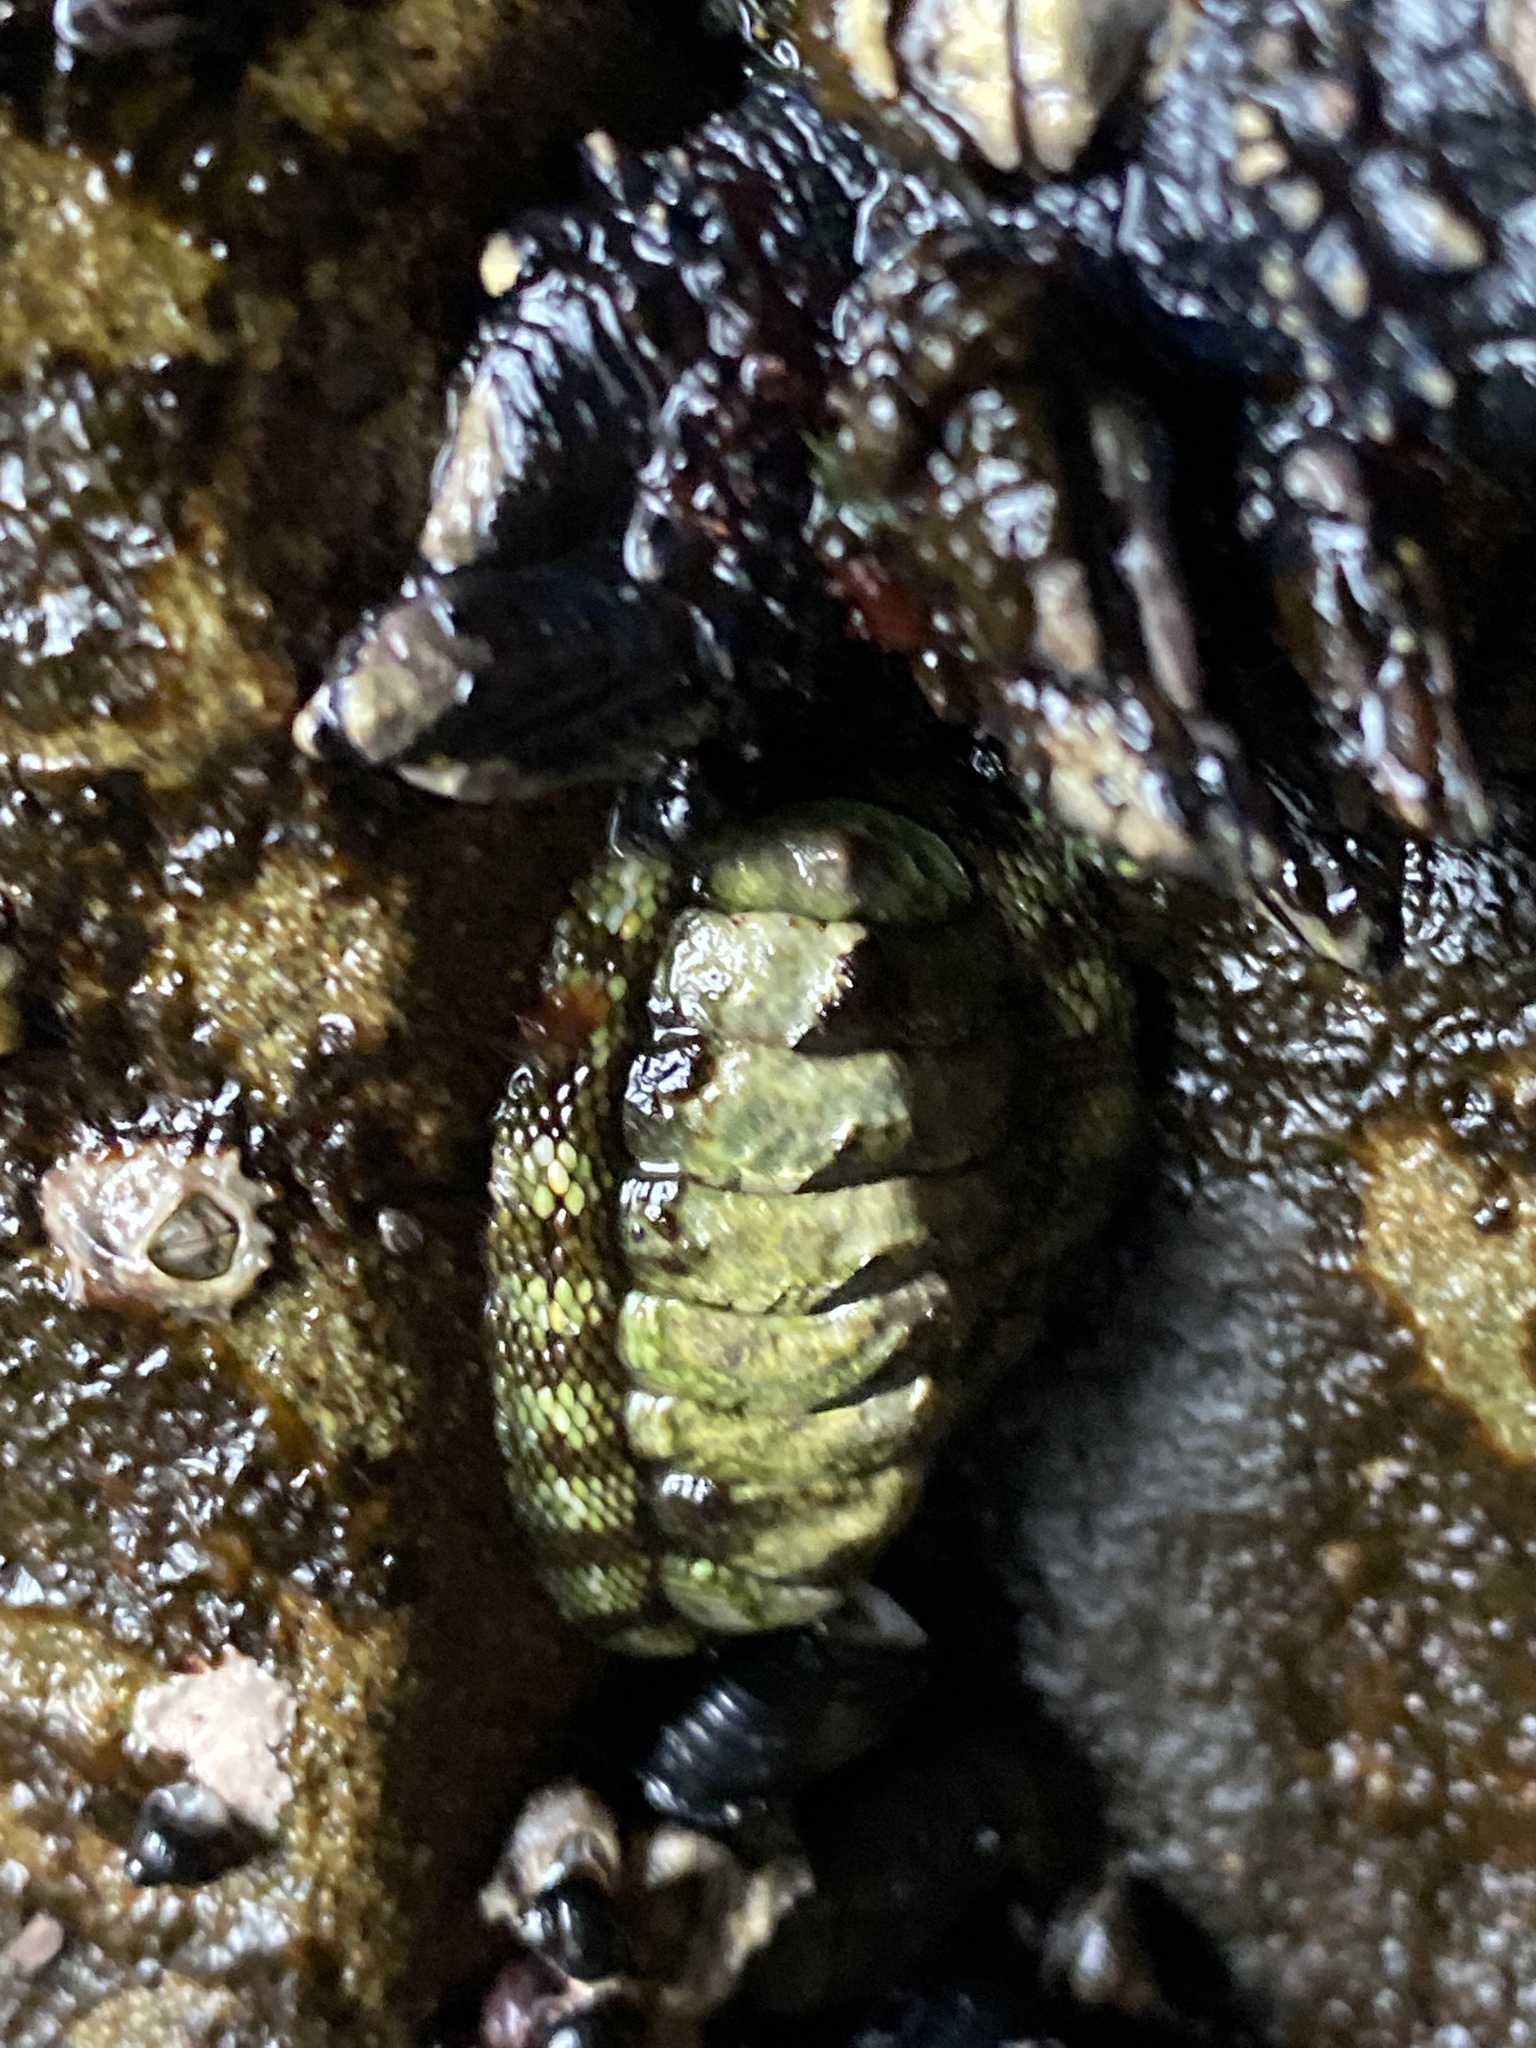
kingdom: Animalia
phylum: Mollusca
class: Polyplacophora
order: Chitonida
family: Chitonidae
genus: Sypharochiton
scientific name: Sypharochiton pelliserpentis
